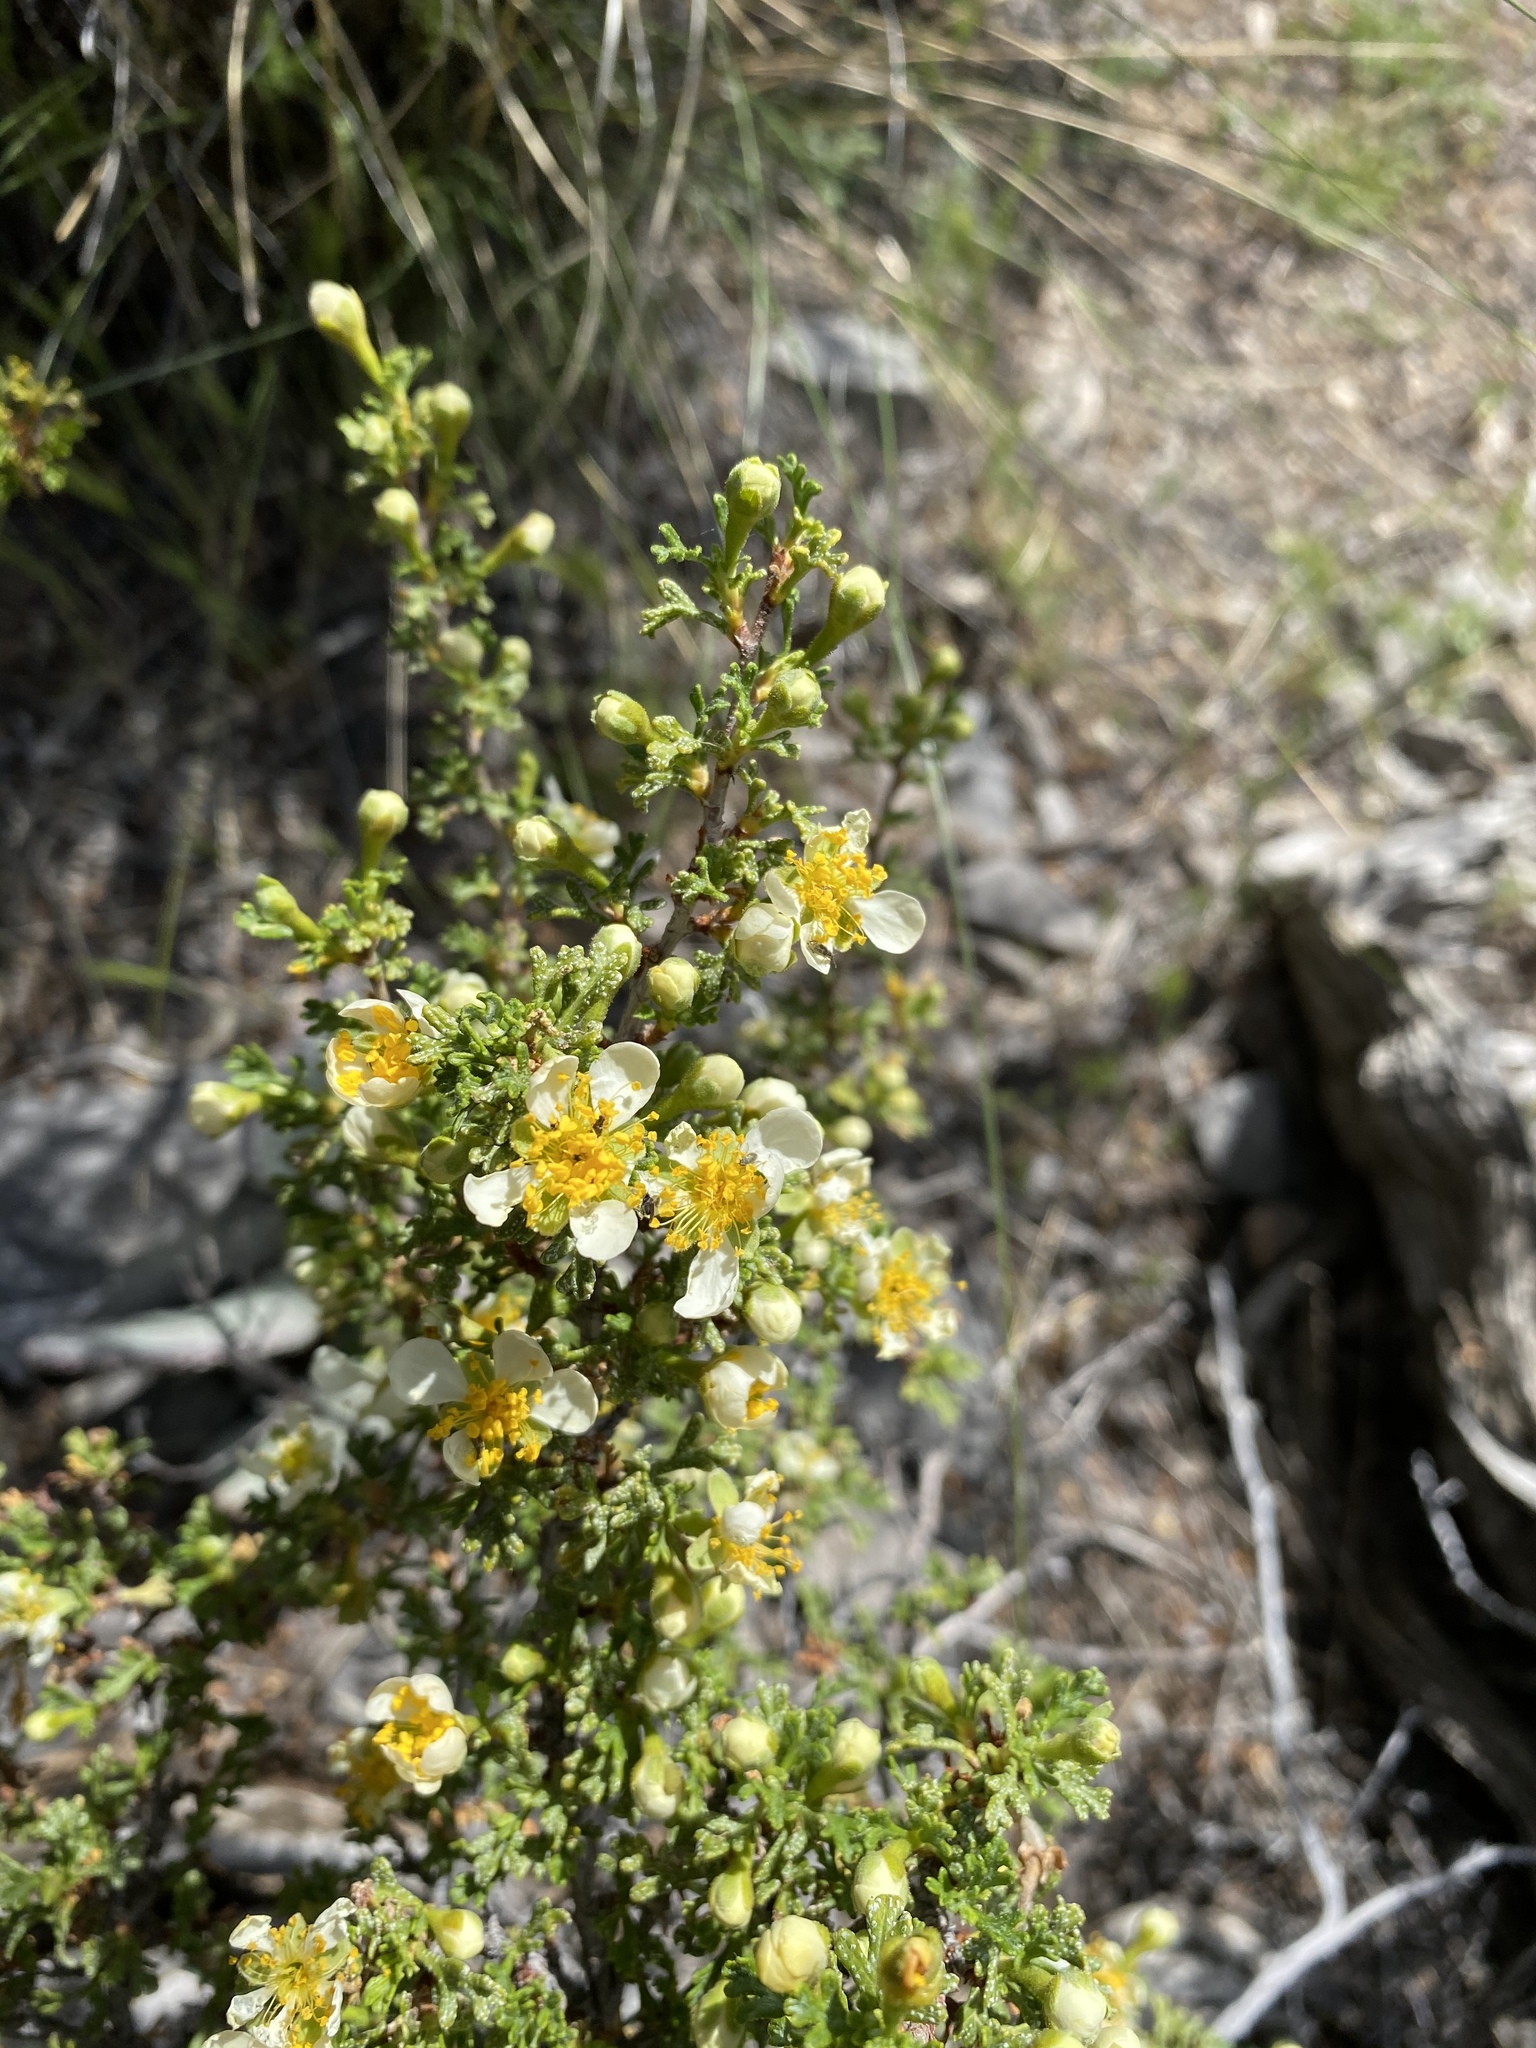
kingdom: Plantae
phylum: Tracheophyta
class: Magnoliopsida
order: Rosales
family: Rosaceae
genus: Purshia
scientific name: Purshia stansburiana
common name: Stansbury's cliffrose
